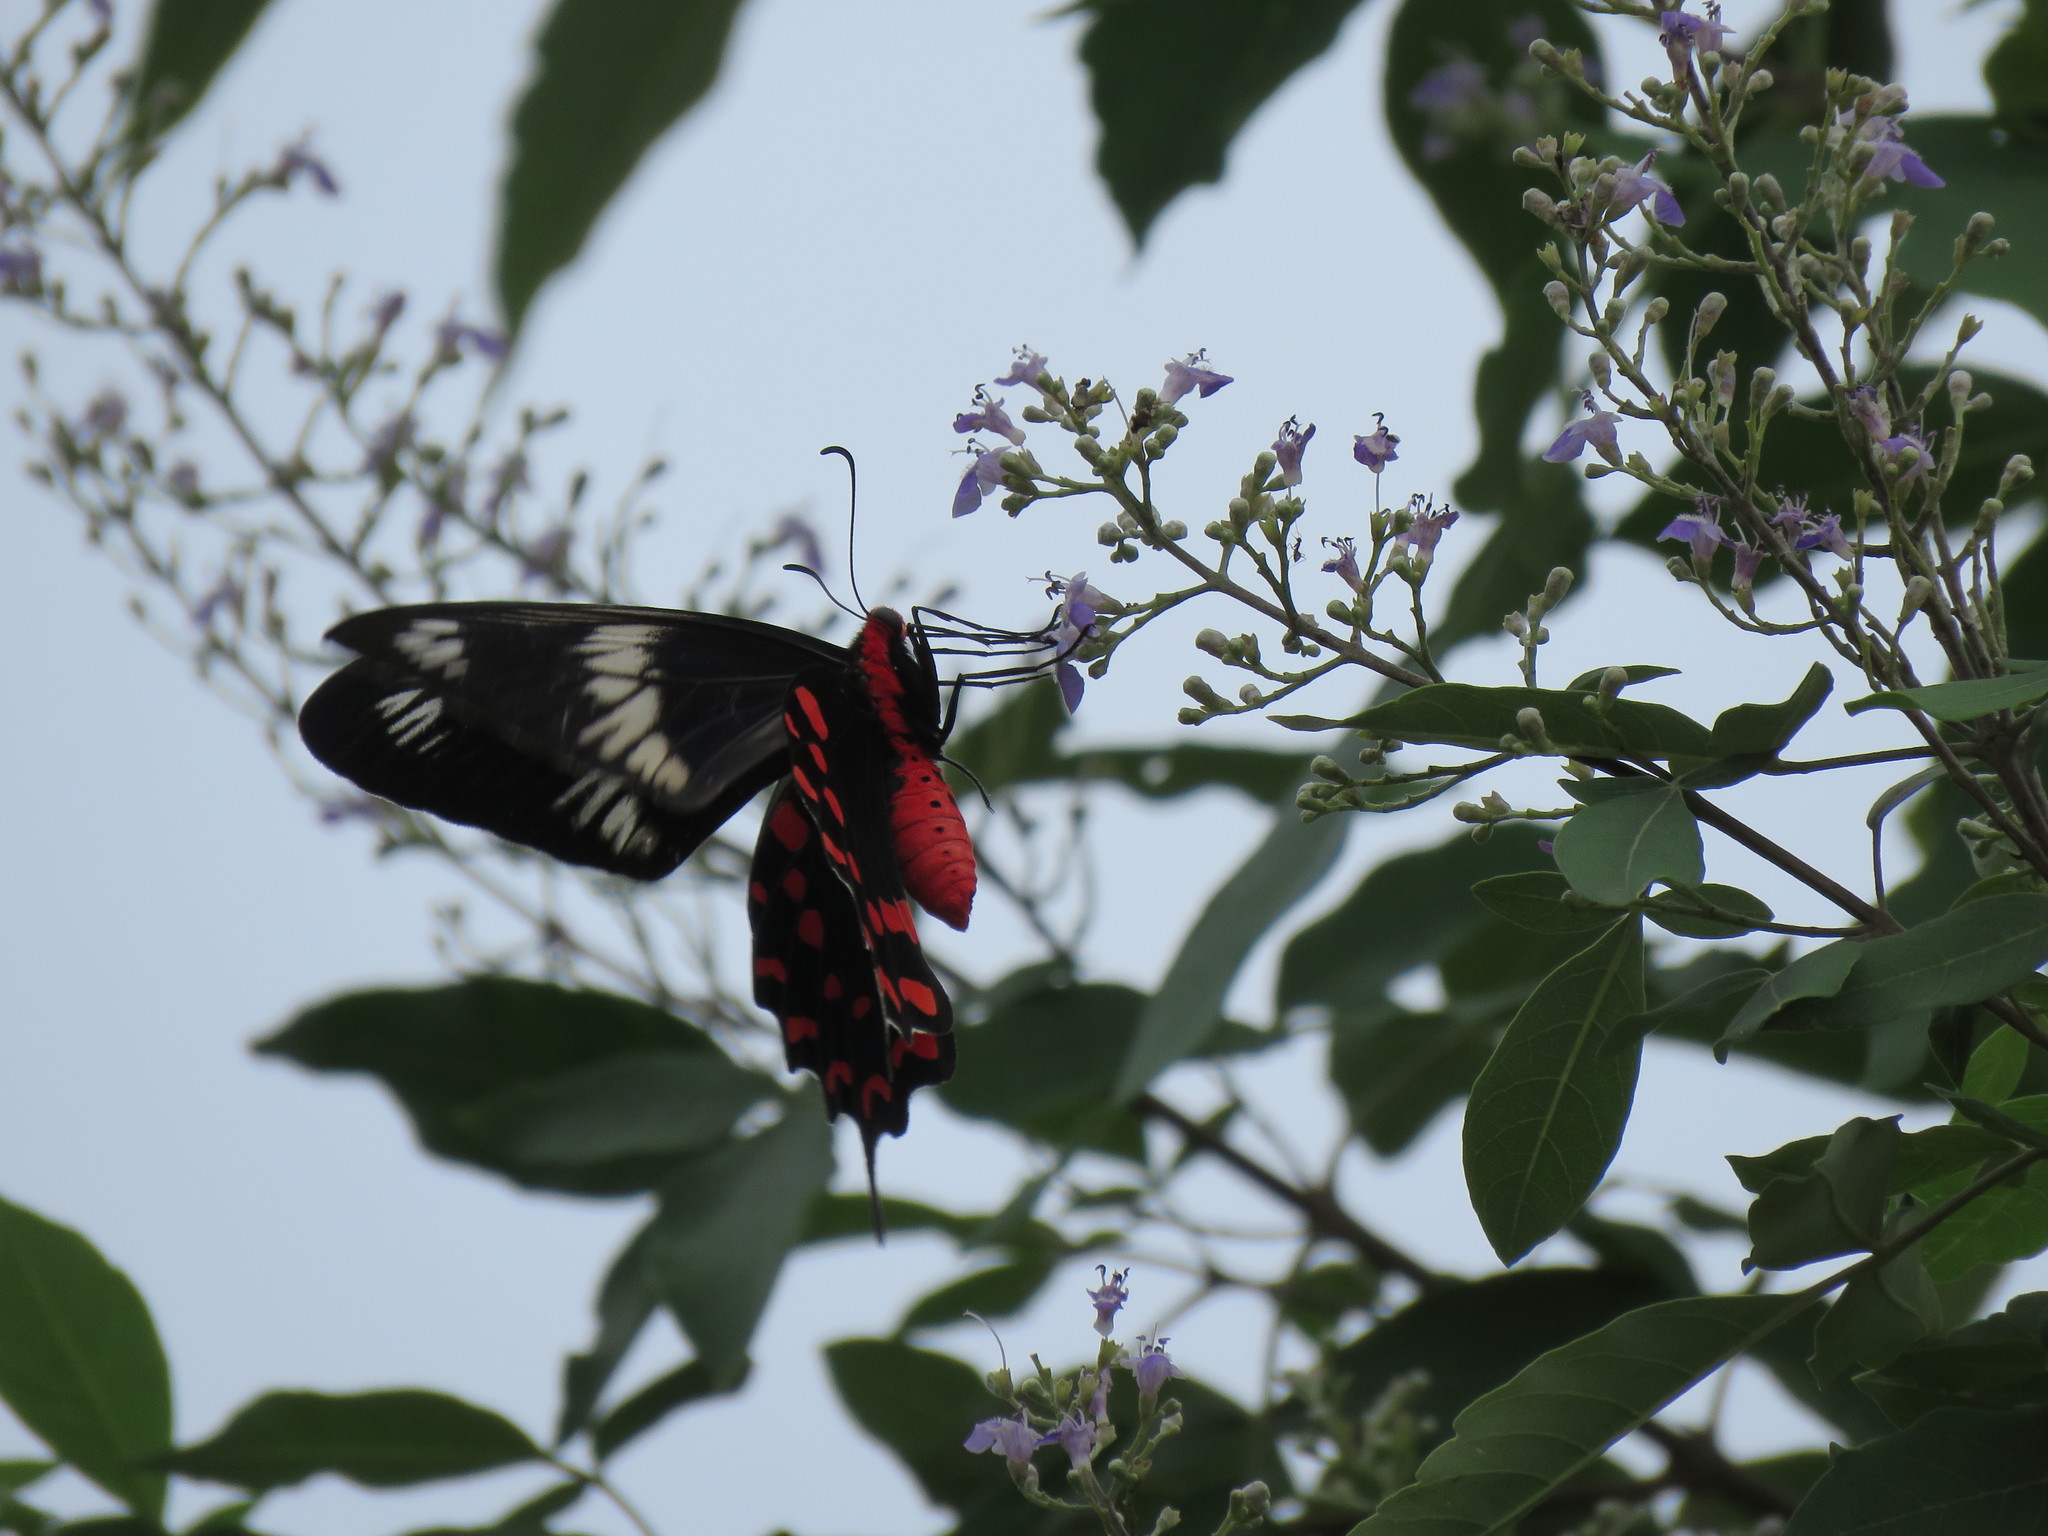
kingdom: Animalia
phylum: Arthropoda
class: Insecta
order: Lepidoptera
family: Papilionidae
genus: Pachliopta
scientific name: Pachliopta hector
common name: Crimson rose
